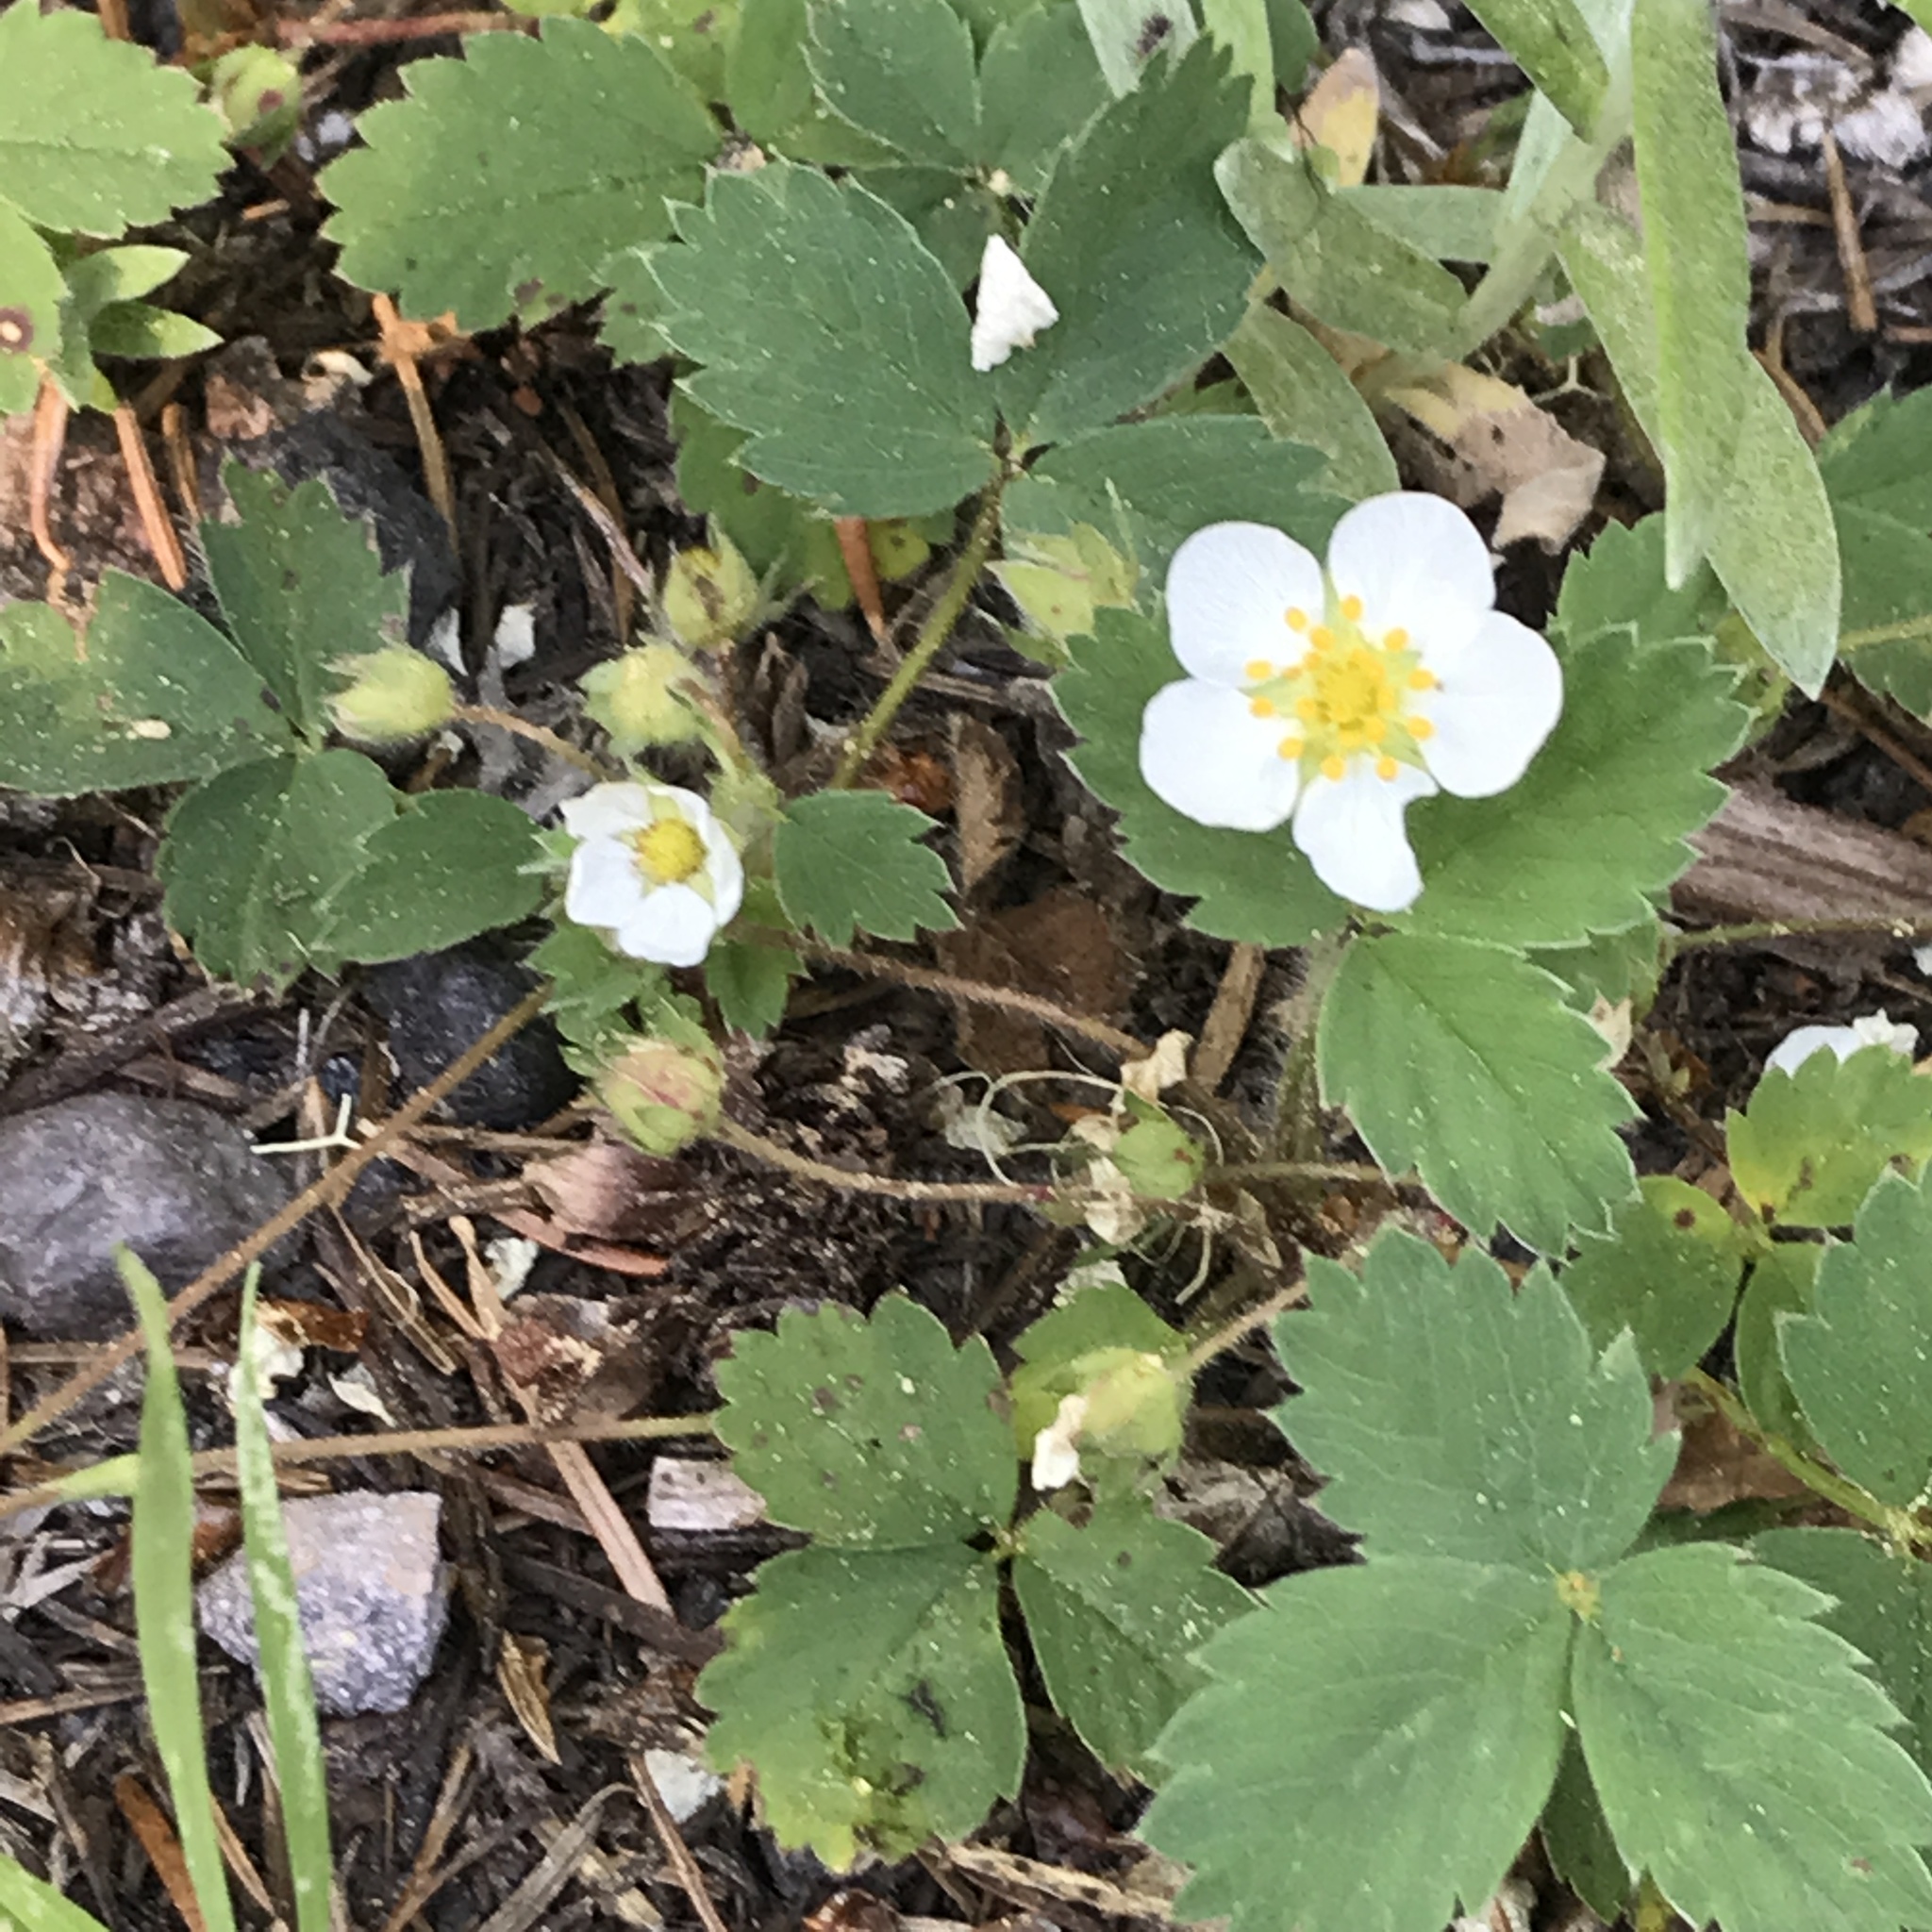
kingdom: Plantae
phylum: Tracheophyta
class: Magnoliopsida
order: Rosales
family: Rosaceae
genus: Fragaria
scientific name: Fragaria cascadensis
